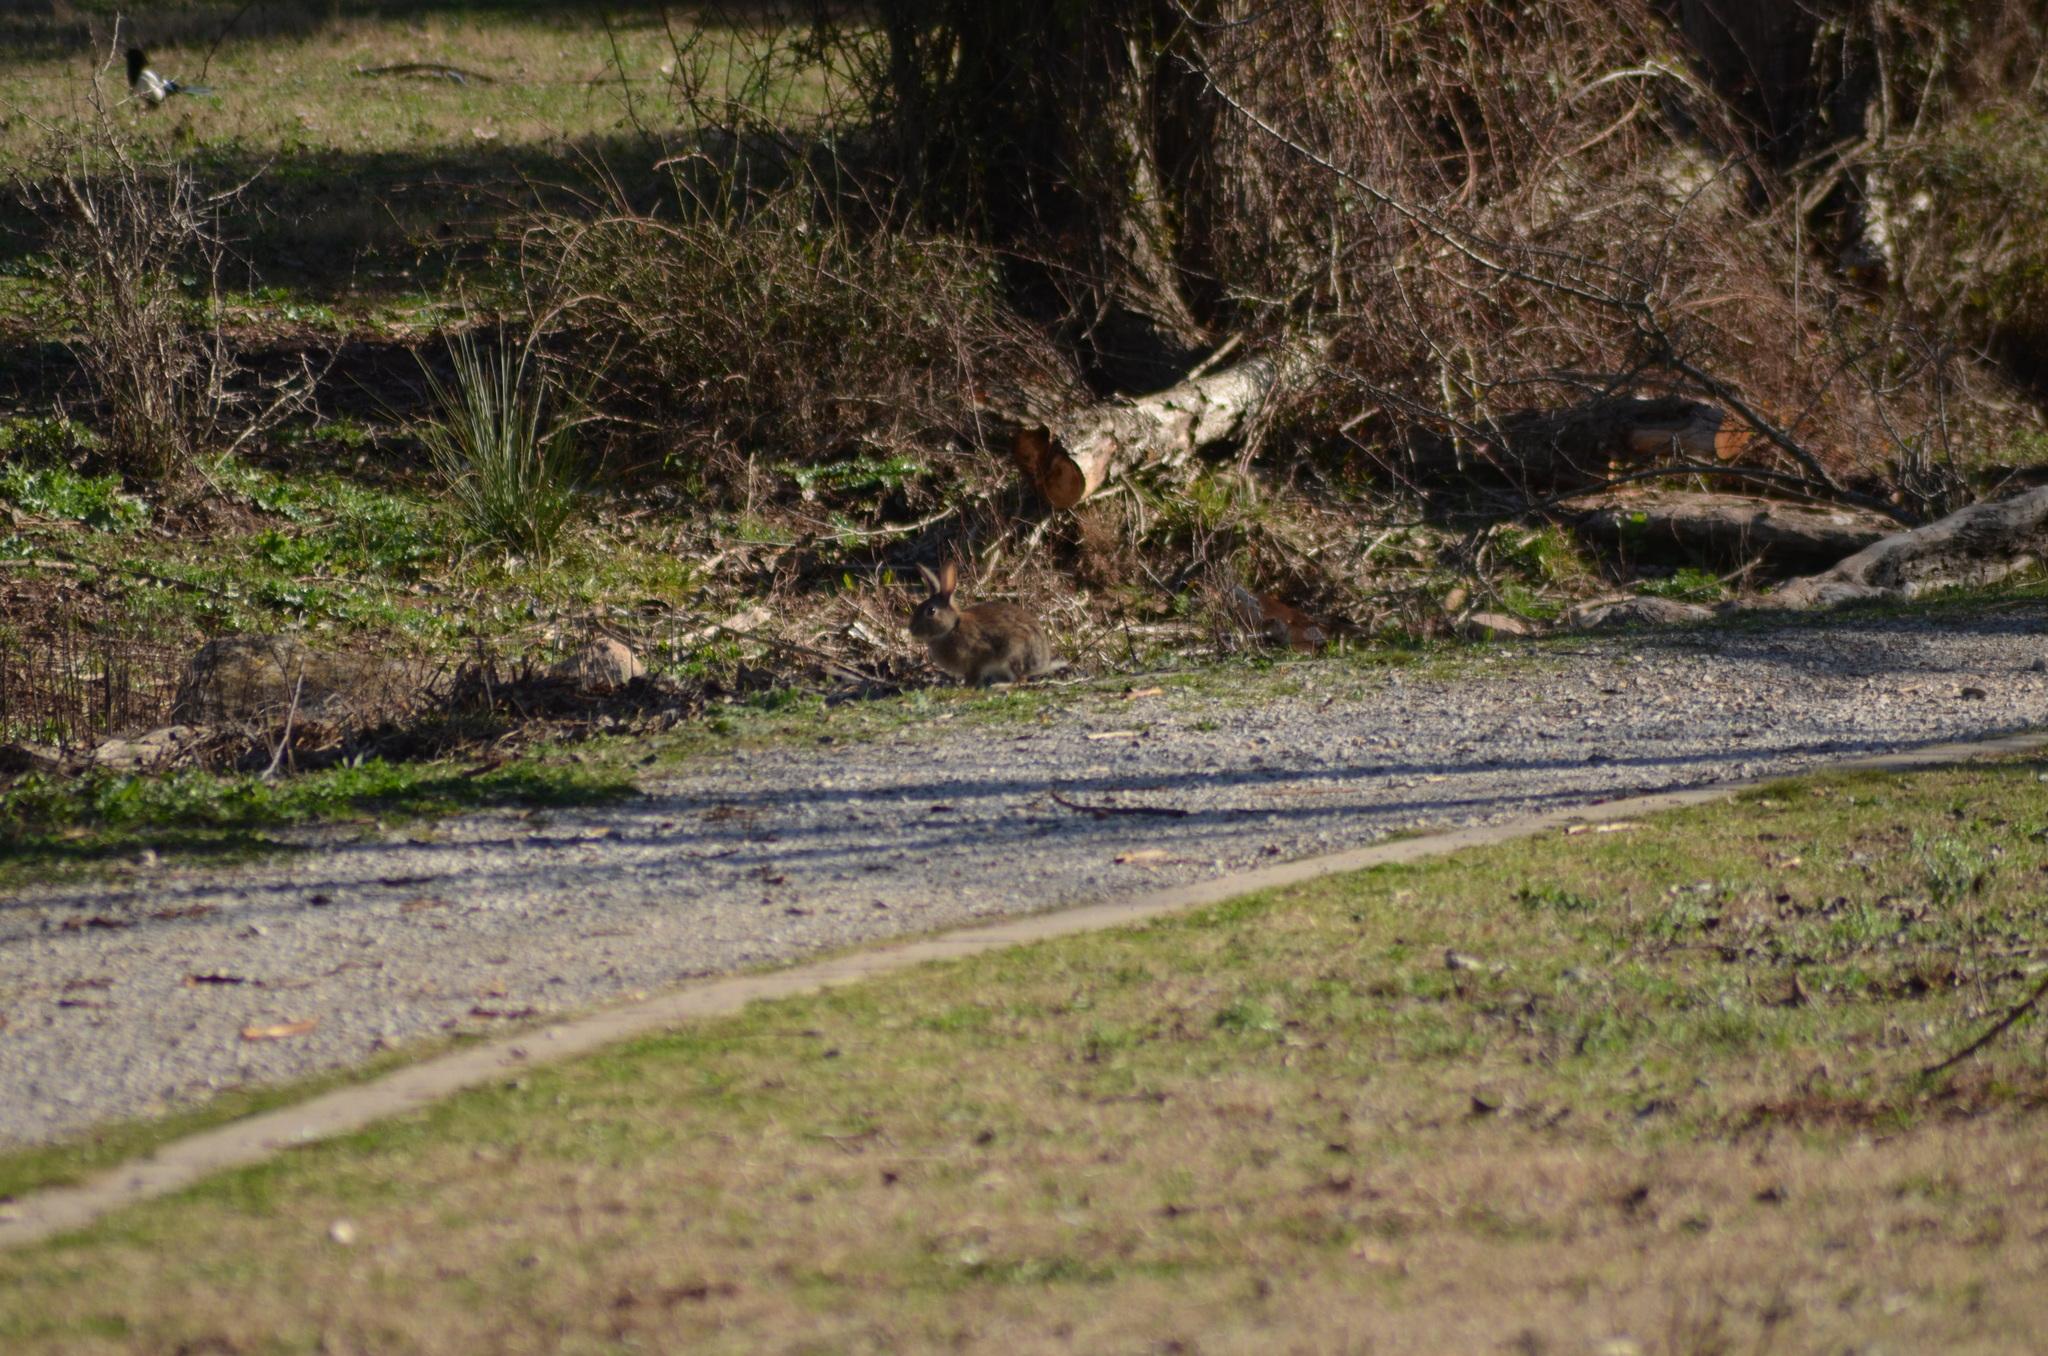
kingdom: Animalia
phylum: Chordata
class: Mammalia
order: Lagomorpha
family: Leporidae
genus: Oryctolagus
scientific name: Oryctolagus cuniculus
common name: European rabbit
